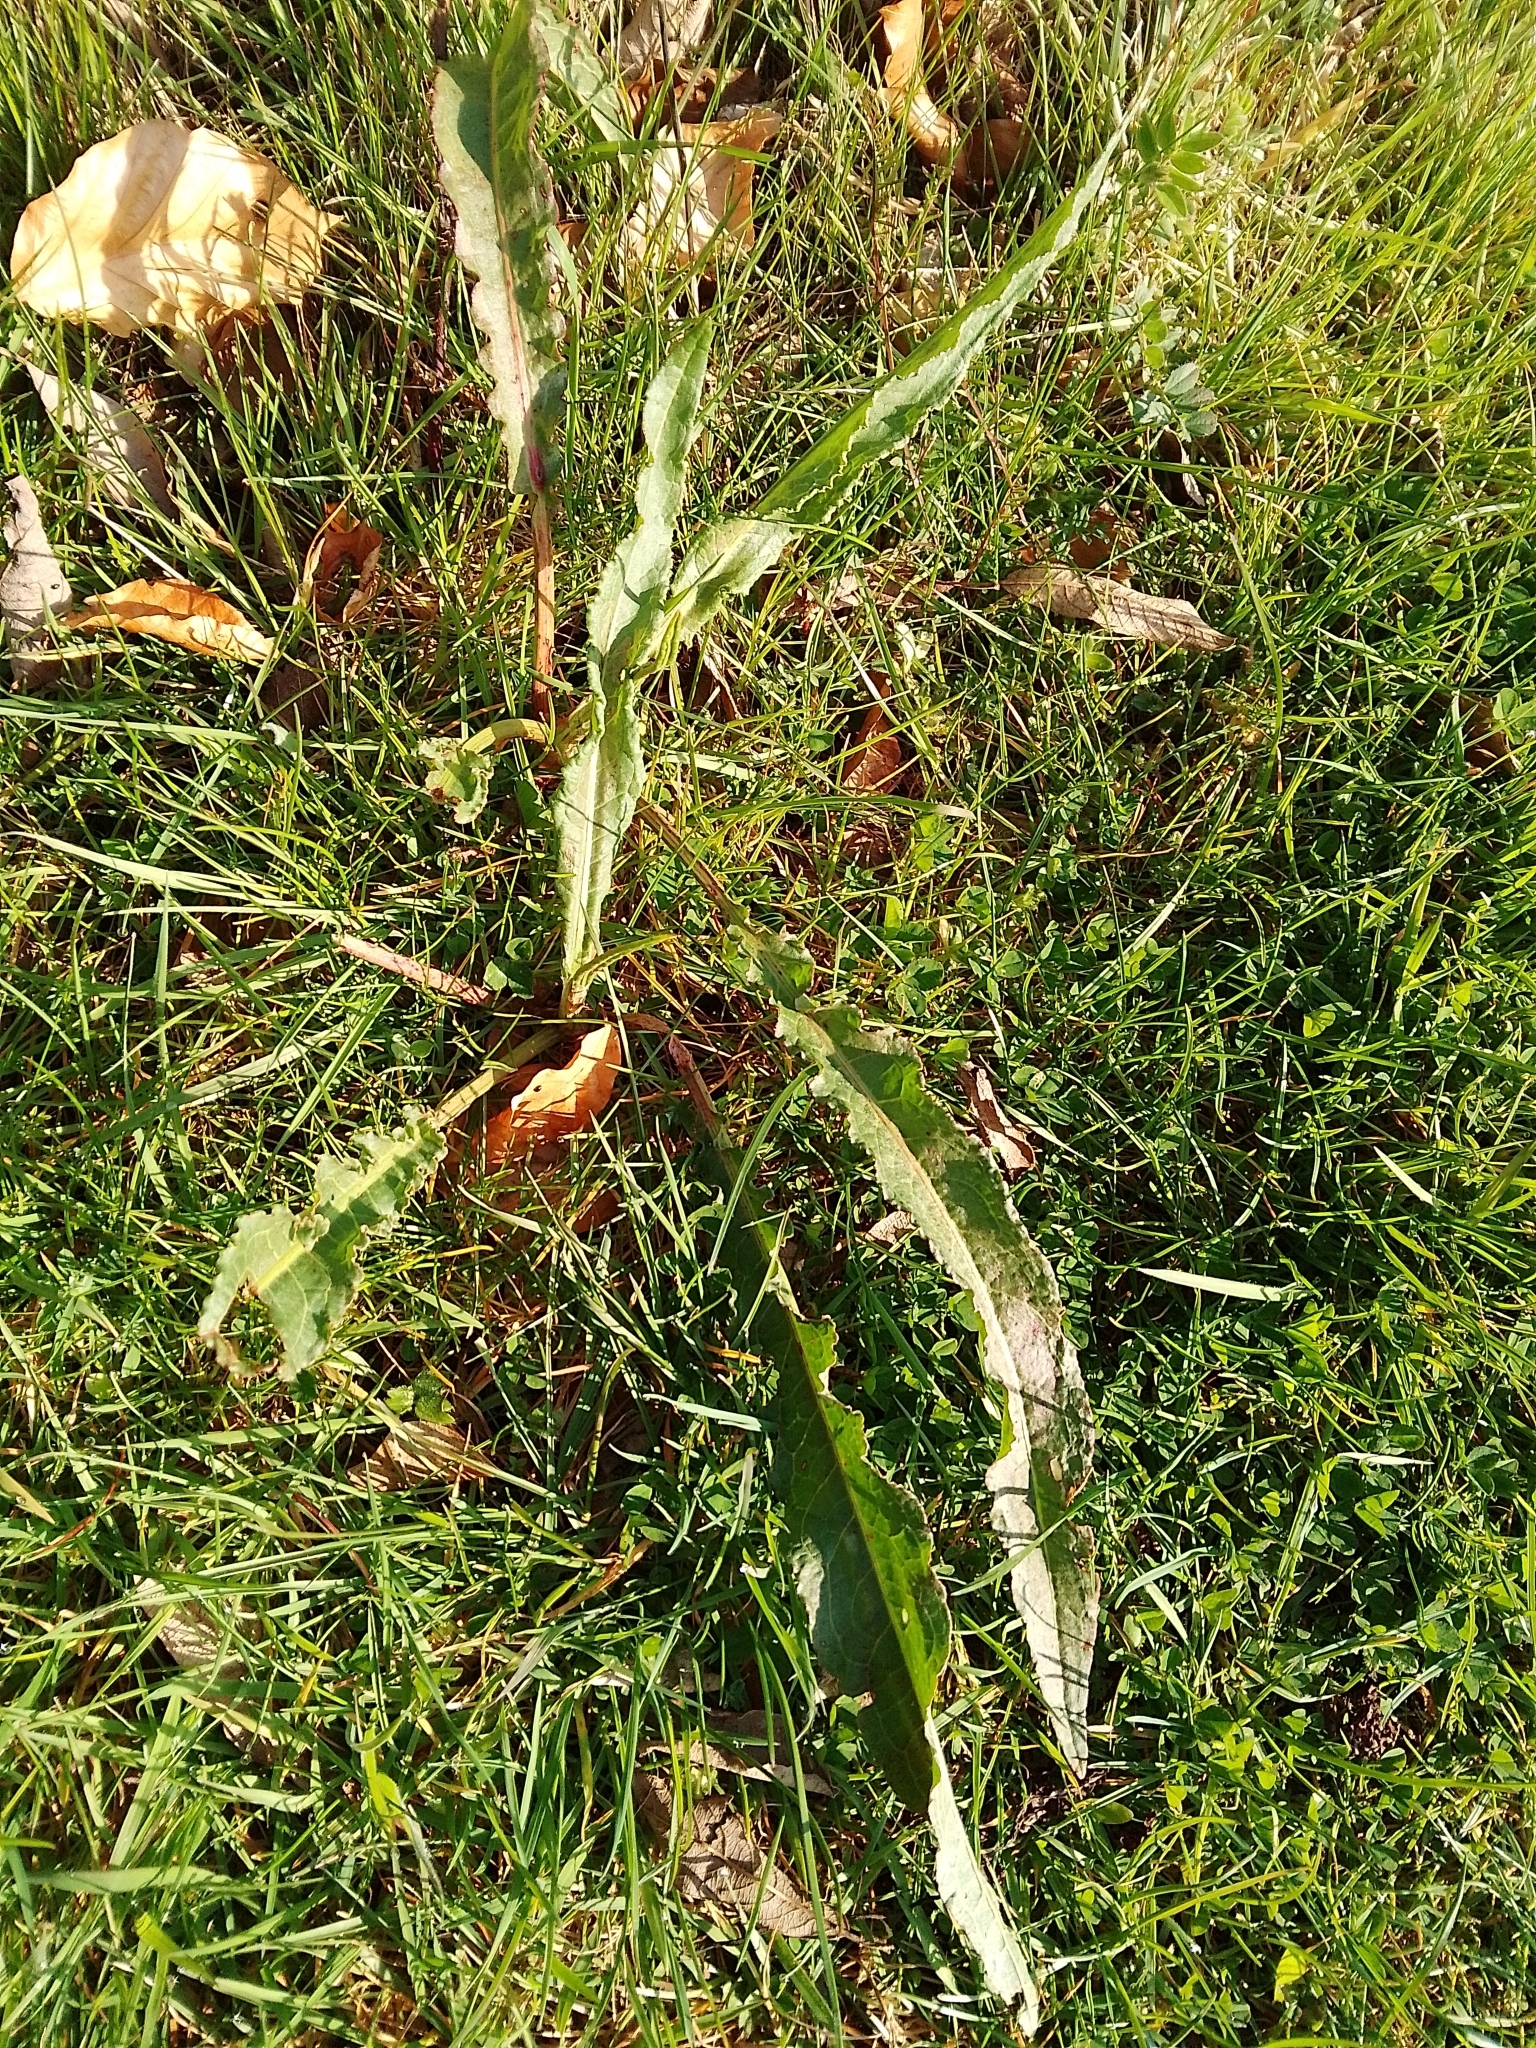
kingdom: Plantae
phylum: Tracheophyta
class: Magnoliopsida
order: Caryophyllales
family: Polygonaceae
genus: Rumex
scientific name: Rumex crispus
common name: Curled dock
